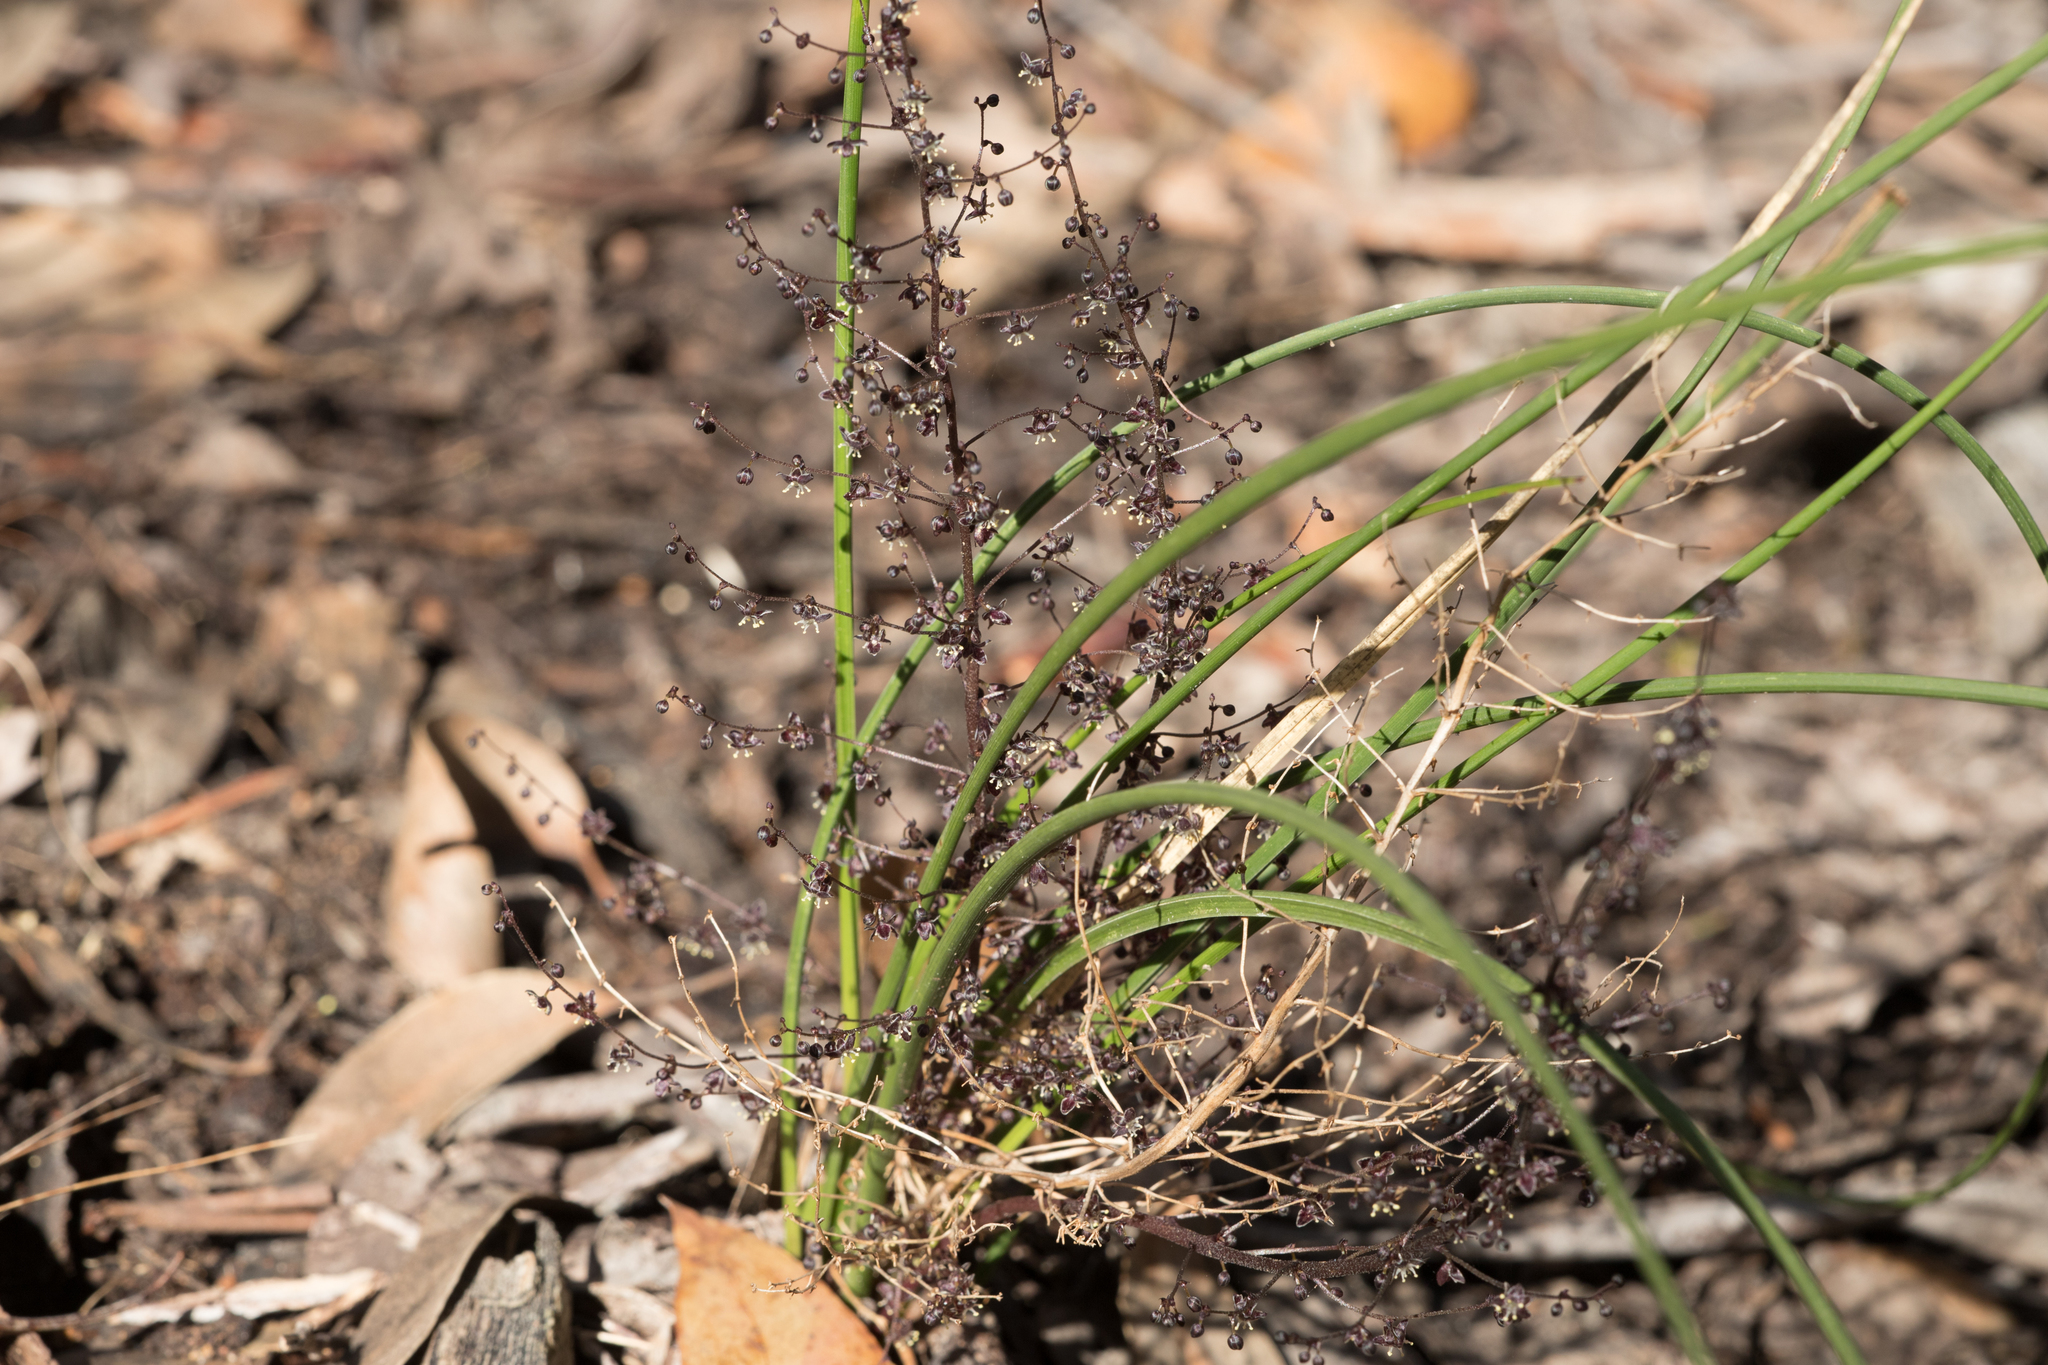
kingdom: Plantae
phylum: Tracheophyta
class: Liliopsida
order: Asparagales
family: Asparagaceae
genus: Lomandra
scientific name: Lomandra micrantha
